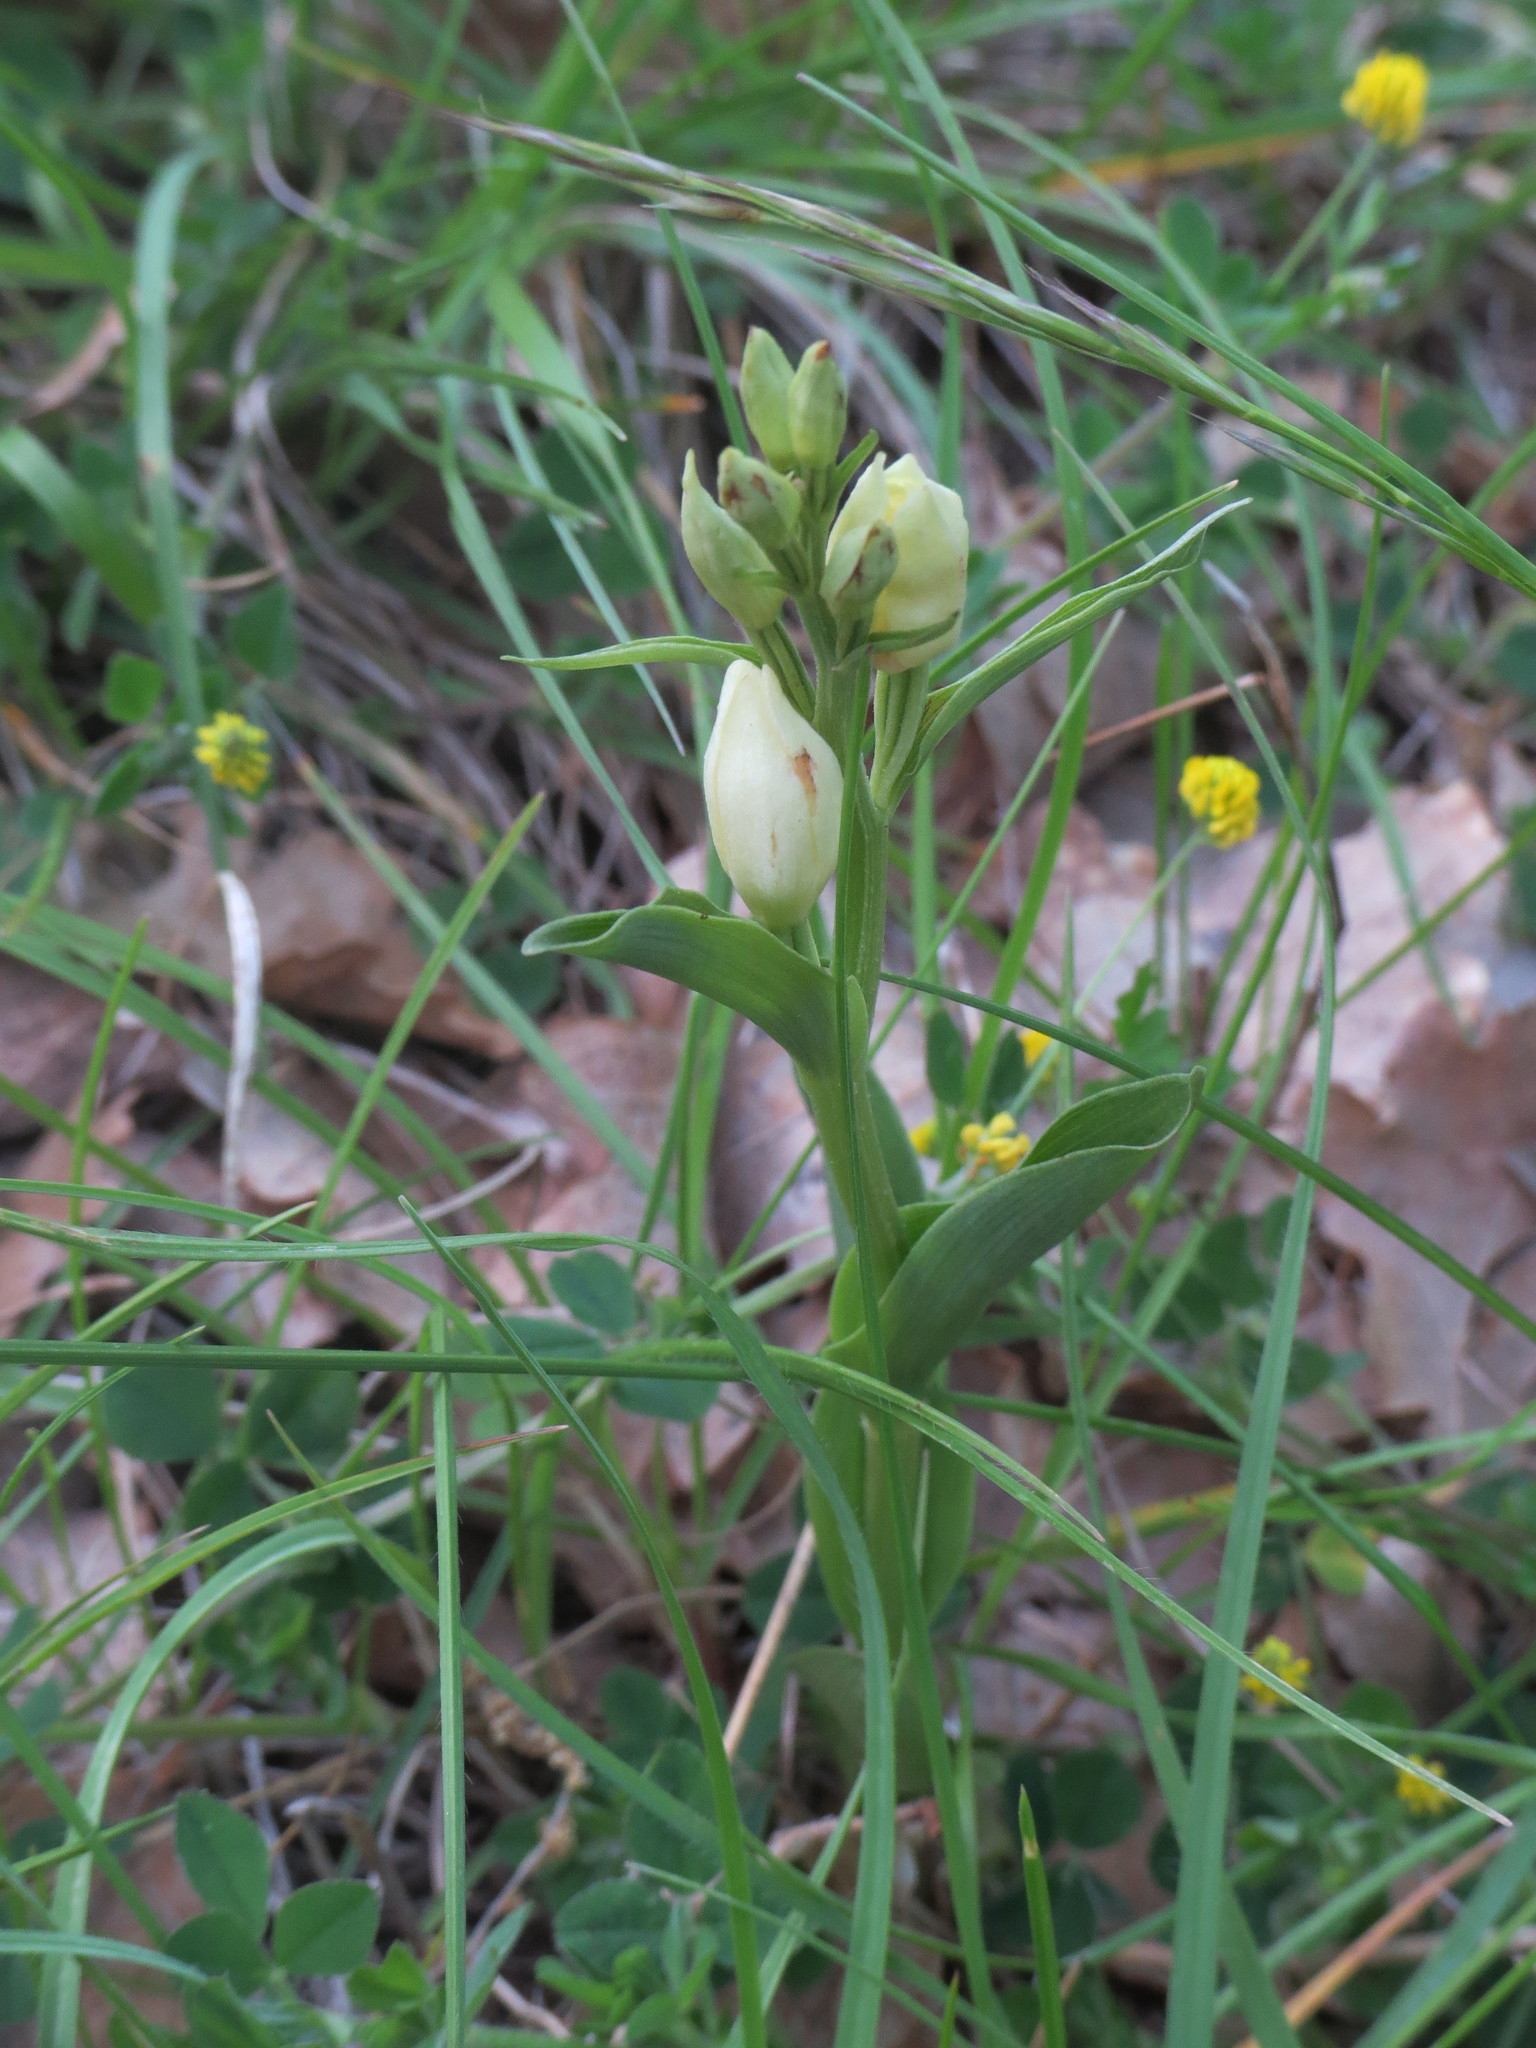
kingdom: Plantae
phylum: Tracheophyta
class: Liliopsida
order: Asparagales
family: Orchidaceae
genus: Cephalanthera
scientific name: Cephalanthera damasonium
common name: White helleborine
